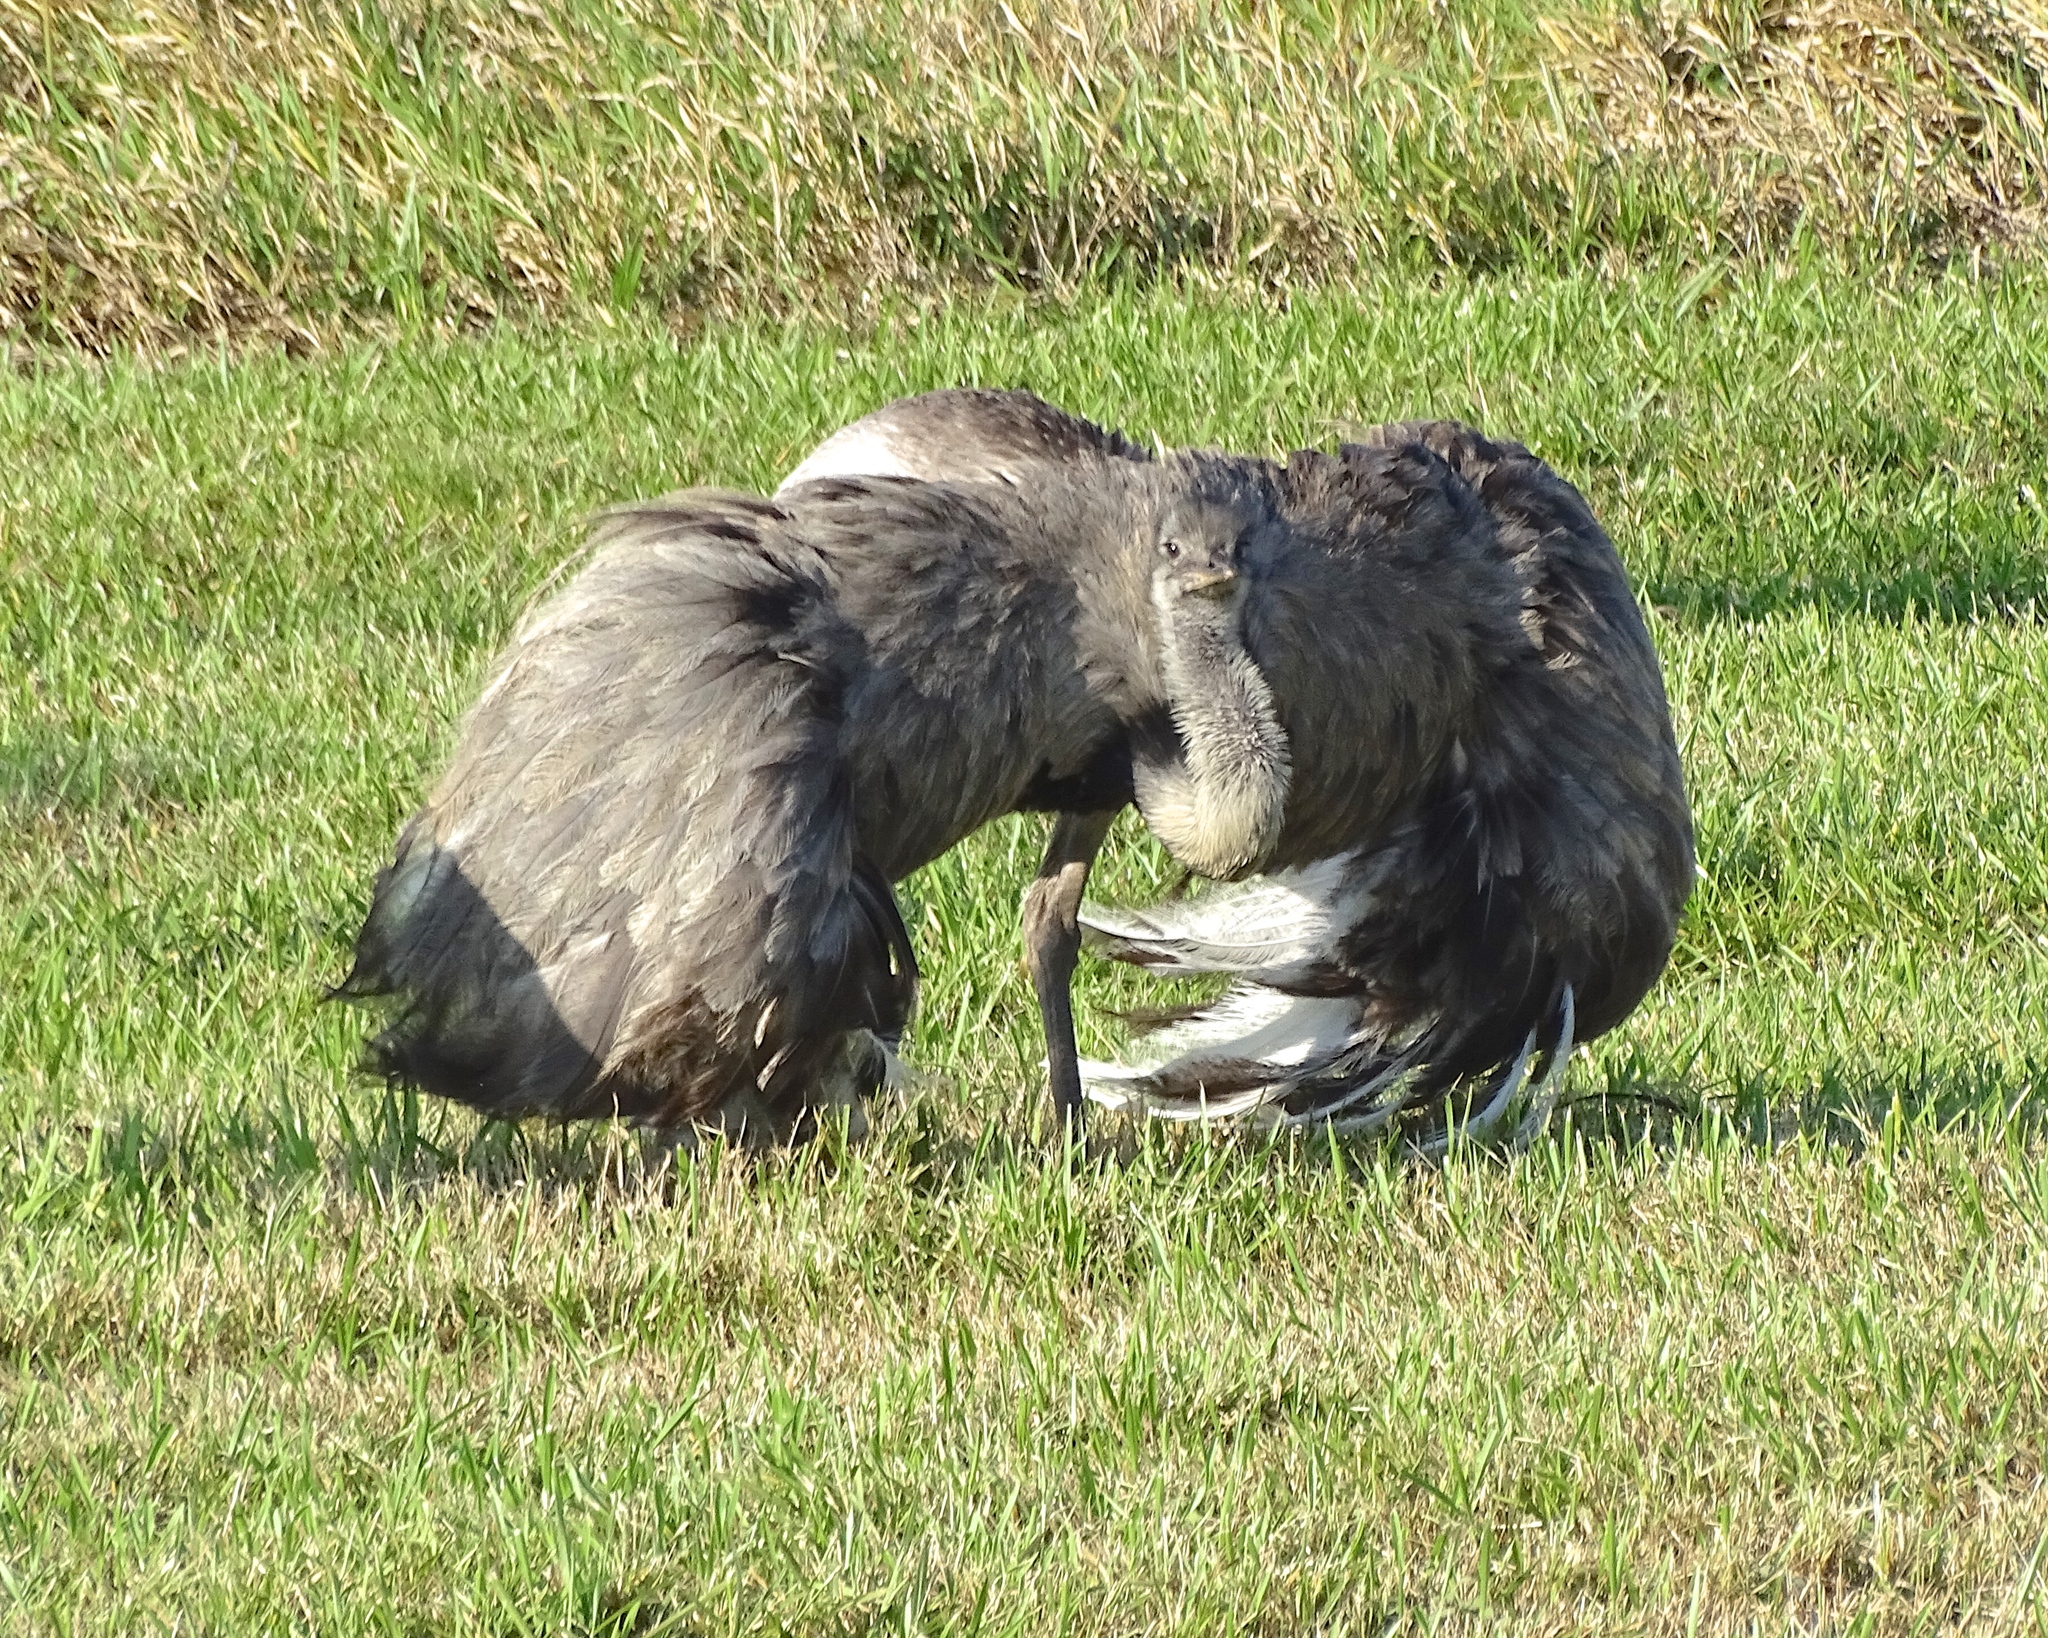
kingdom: Animalia
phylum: Chordata
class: Aves
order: Rheiformes
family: Rheidae
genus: Rhea
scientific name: Rhea americana
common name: Greater rhea
